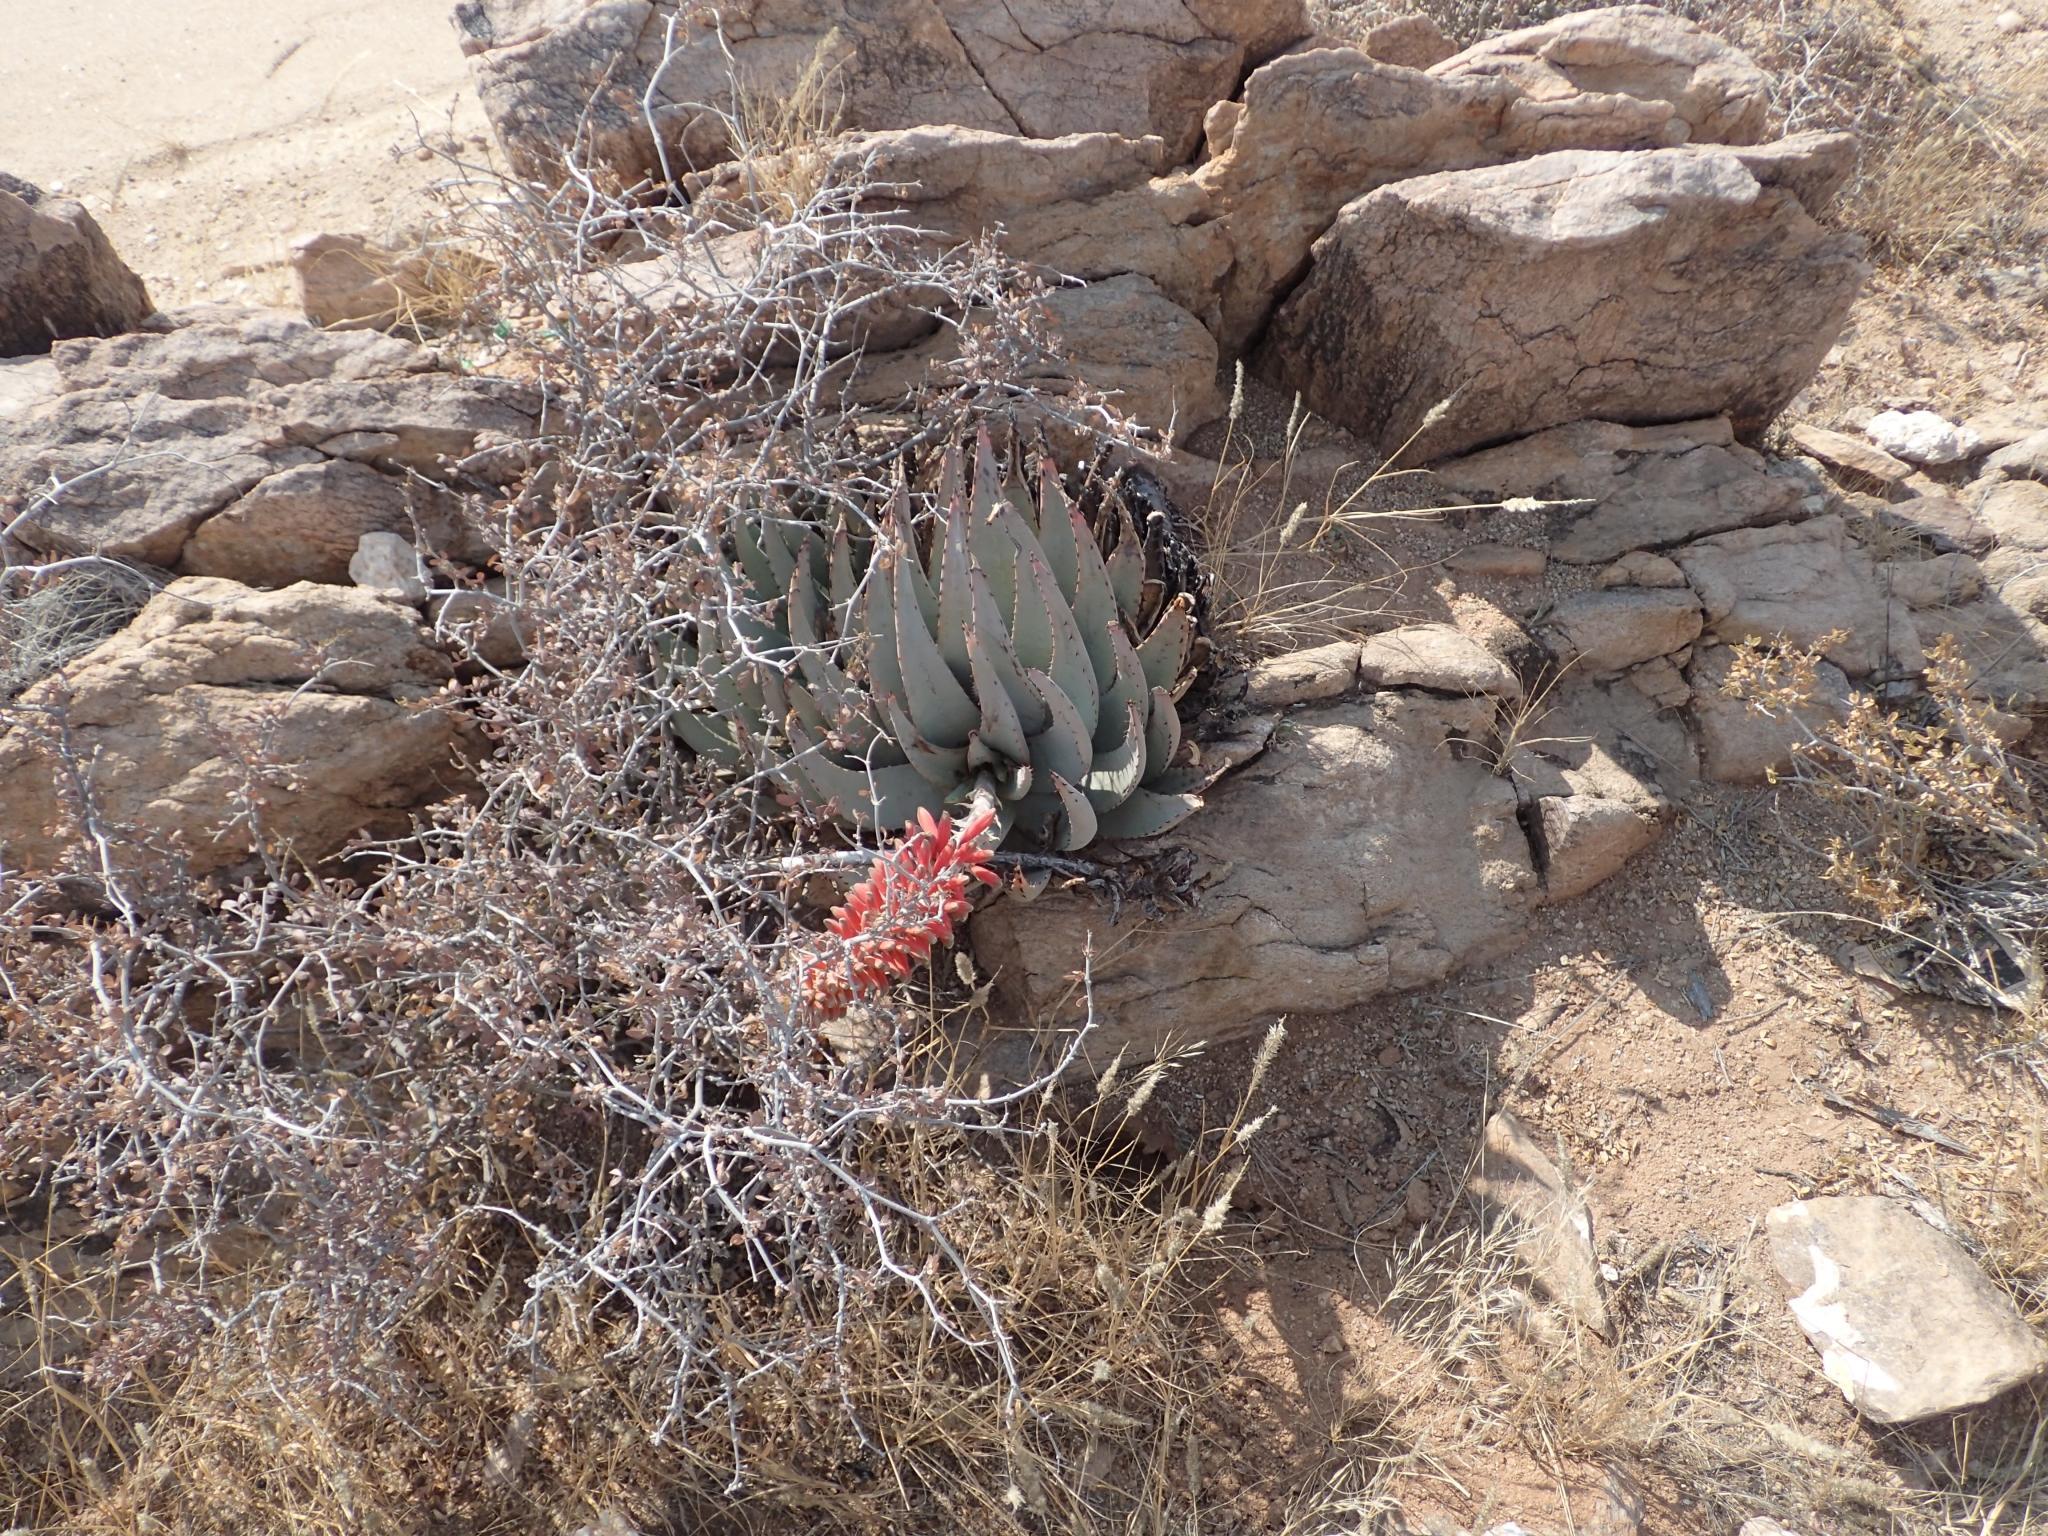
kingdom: Plantae
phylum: Tracheophyta
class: Liliopsida
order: Asparagales
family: Asphodelaceae
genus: Aloe
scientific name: Aloe claviflora
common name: Cannon aloe
